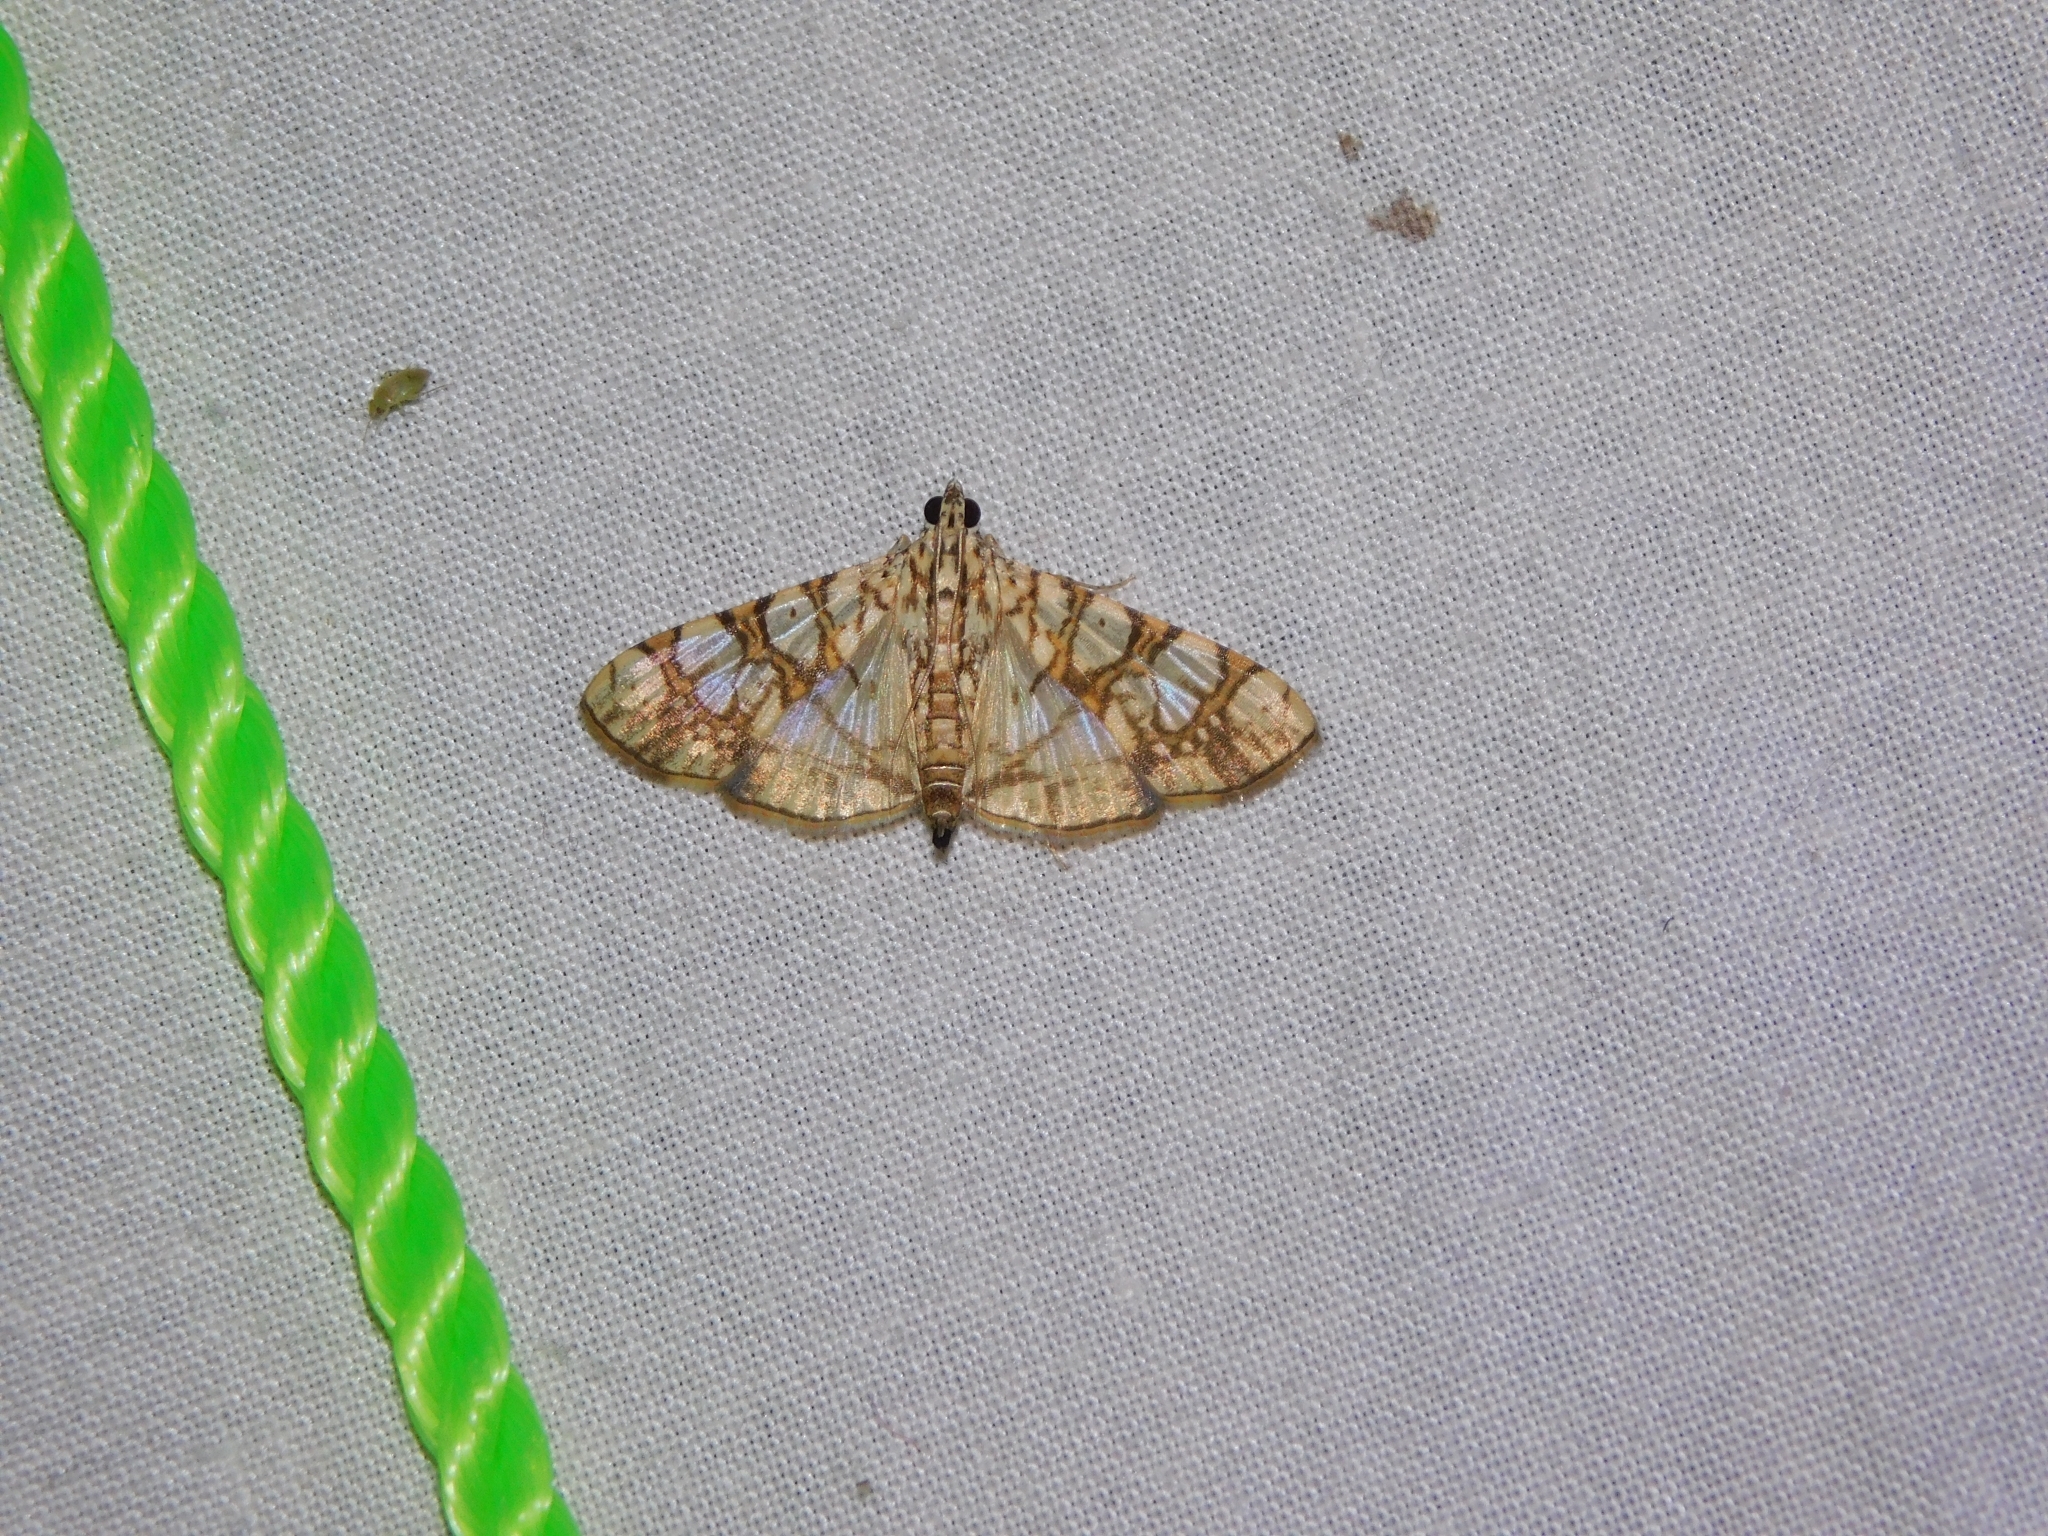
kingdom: Animalia
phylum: Arthropoda
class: Insecta
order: Lepidoptera
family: Crambidae
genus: Glyphodes
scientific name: Glyphodes caesalis
